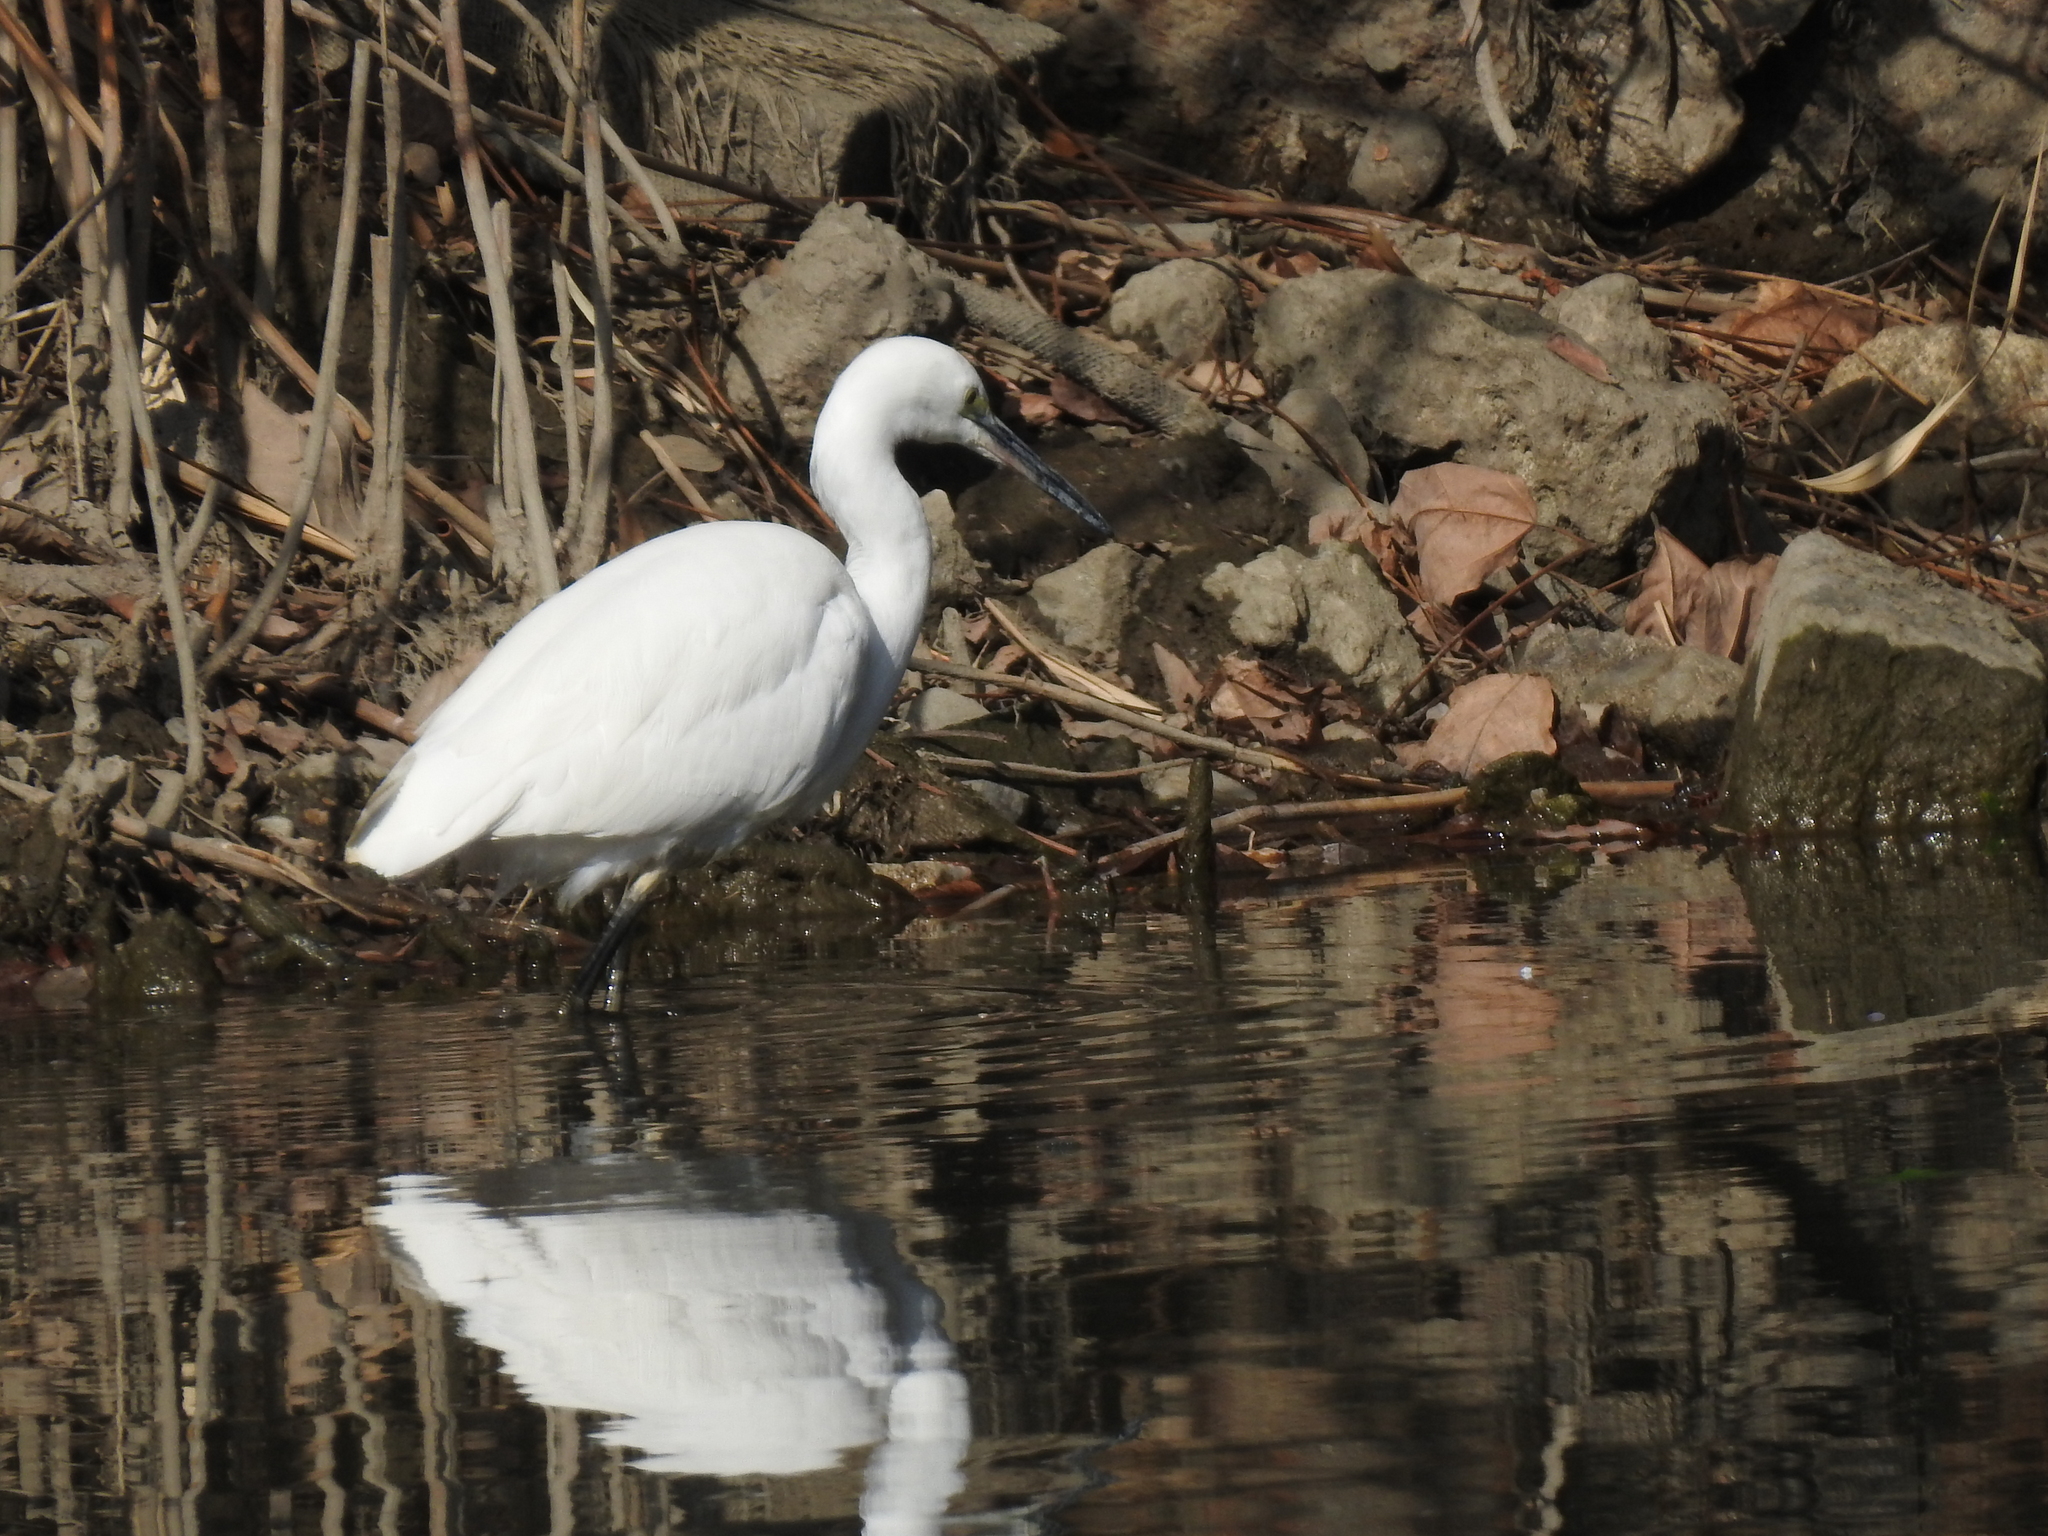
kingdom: Animalia
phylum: Chordata
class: Aves
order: Pelecaniformes
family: Ardeidae
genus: Egretta
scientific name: Egretta garzetta
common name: Little egret
